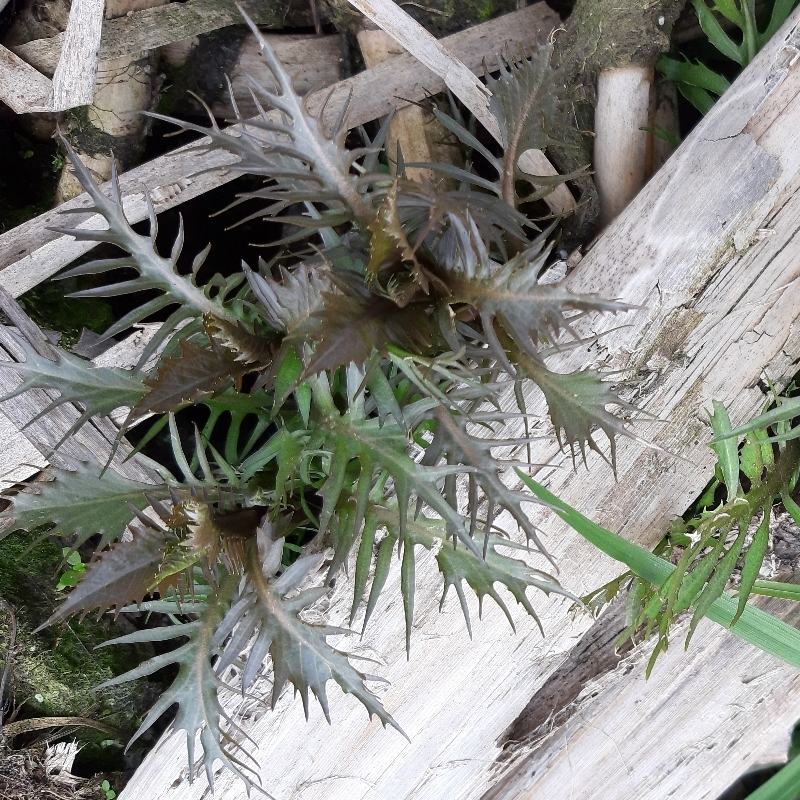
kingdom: Plantae
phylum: Tracheophyta
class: Magnoliopsida
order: Brassicales
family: Brassicaceae
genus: Rorippa
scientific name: Rorippa amphibia
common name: Great yellow-cress
